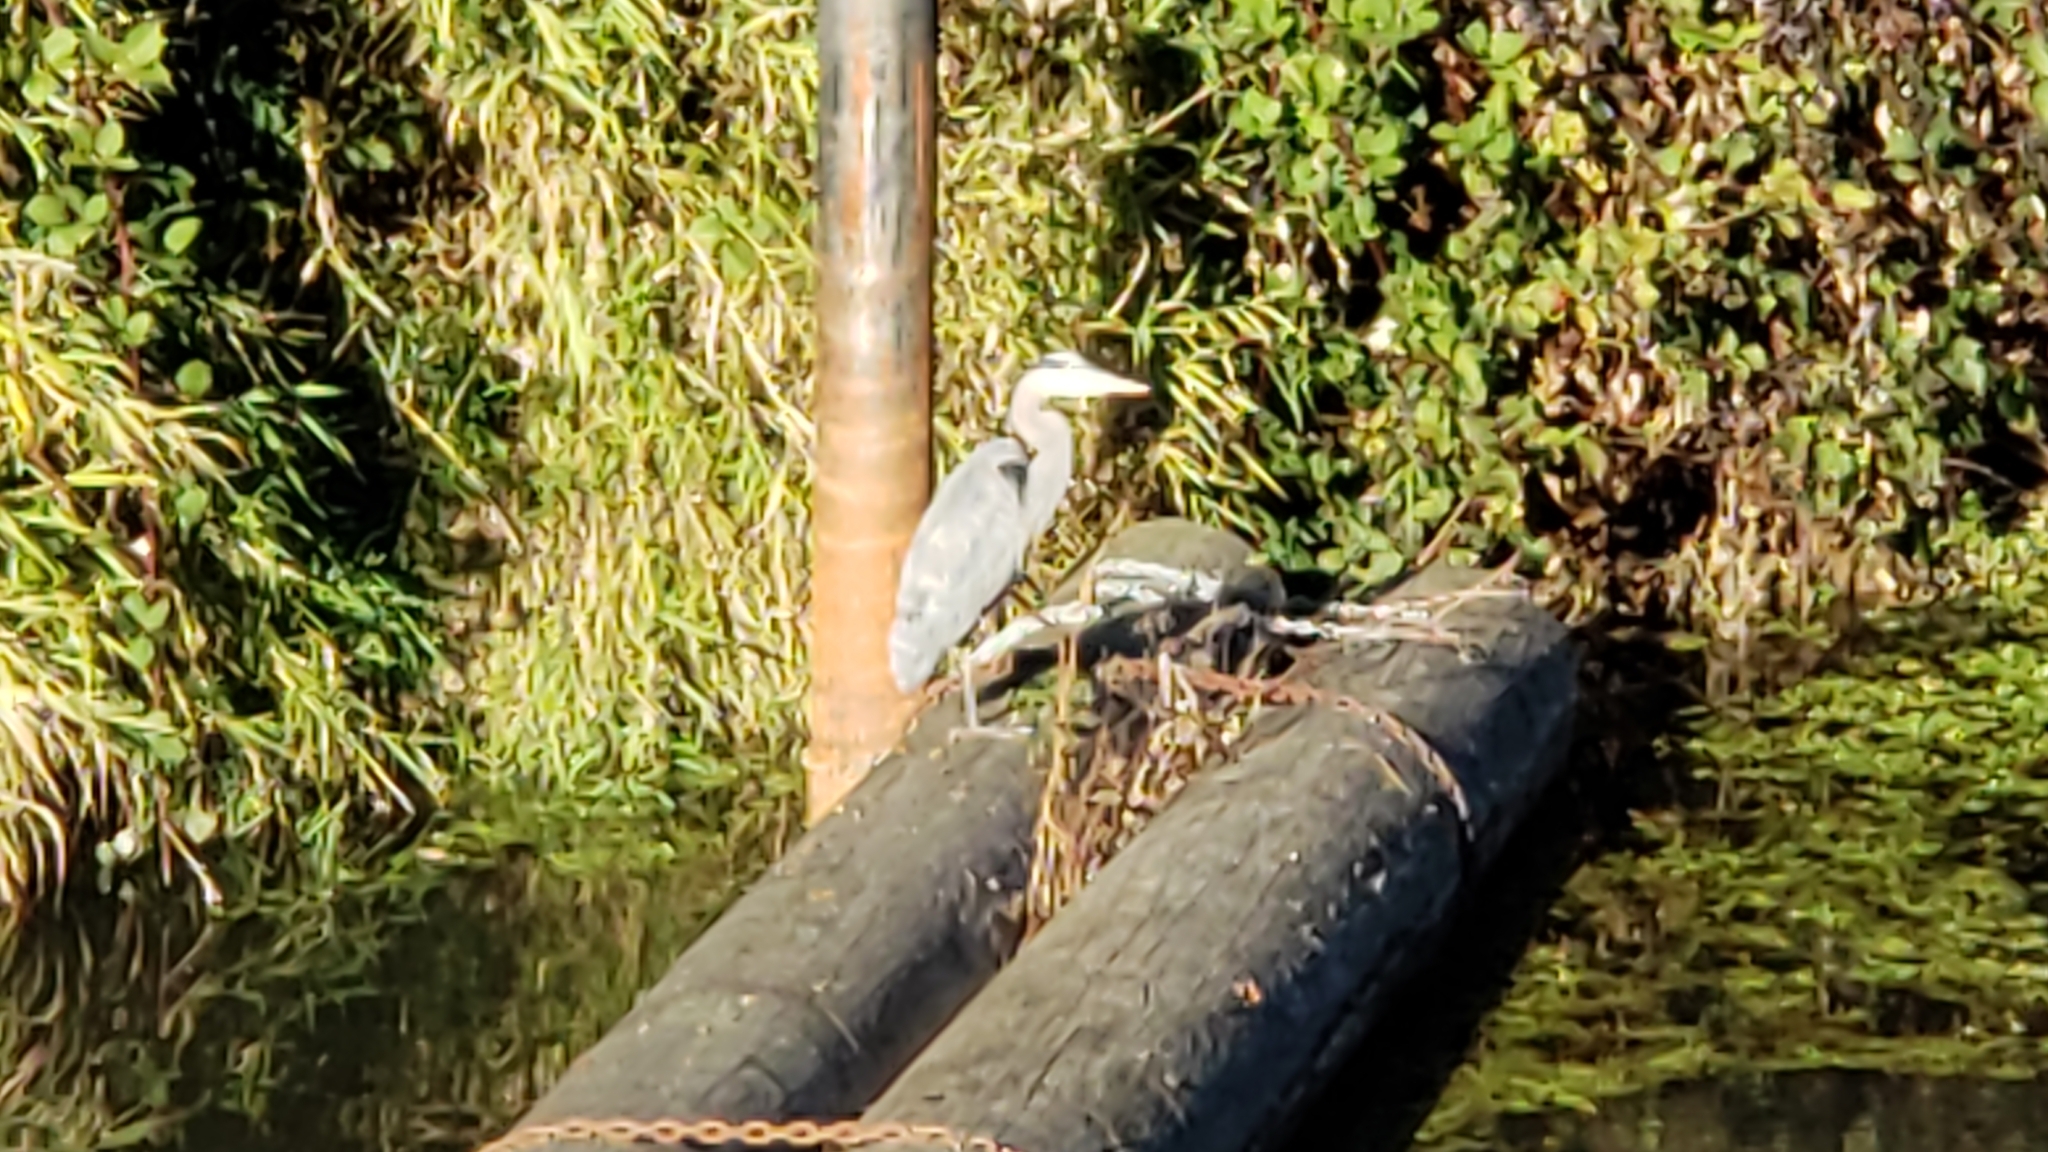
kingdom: Animalia
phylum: Chordata
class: Aves
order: Pelecaniformes
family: Ardeidae
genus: Ardea
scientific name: Ardea herodias
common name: Great blue heron
